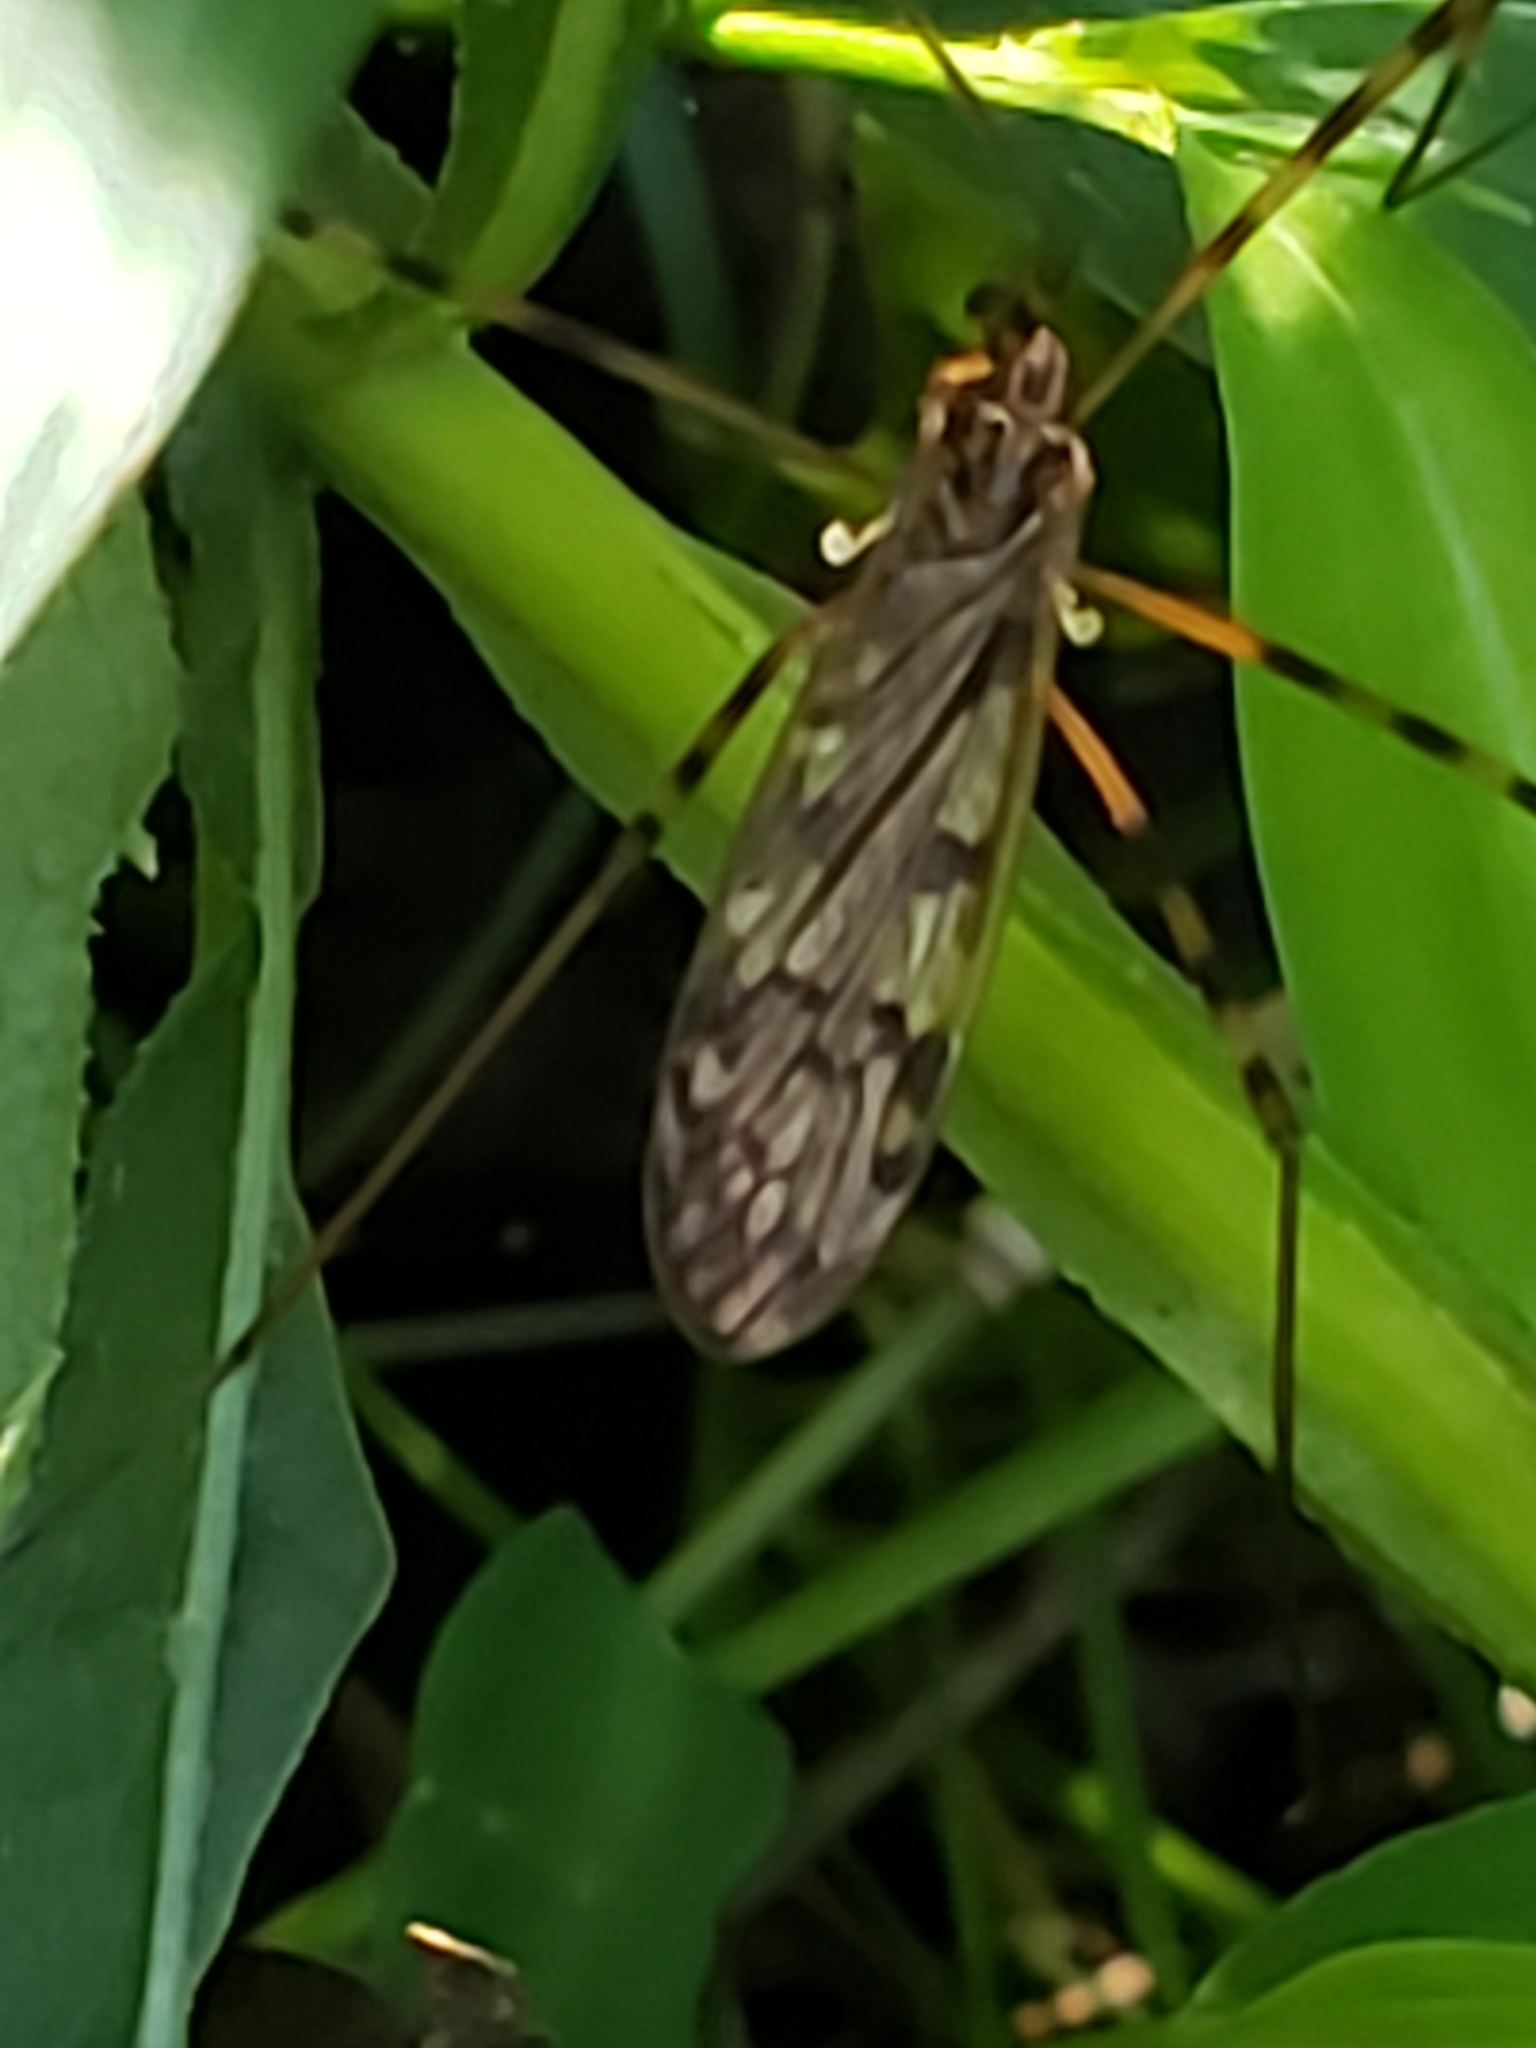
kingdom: Animalia
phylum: Arthropoda
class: Insecta
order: Diptera
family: Limoniidae
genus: Metalimnobia
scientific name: Metalimnobia immatura
